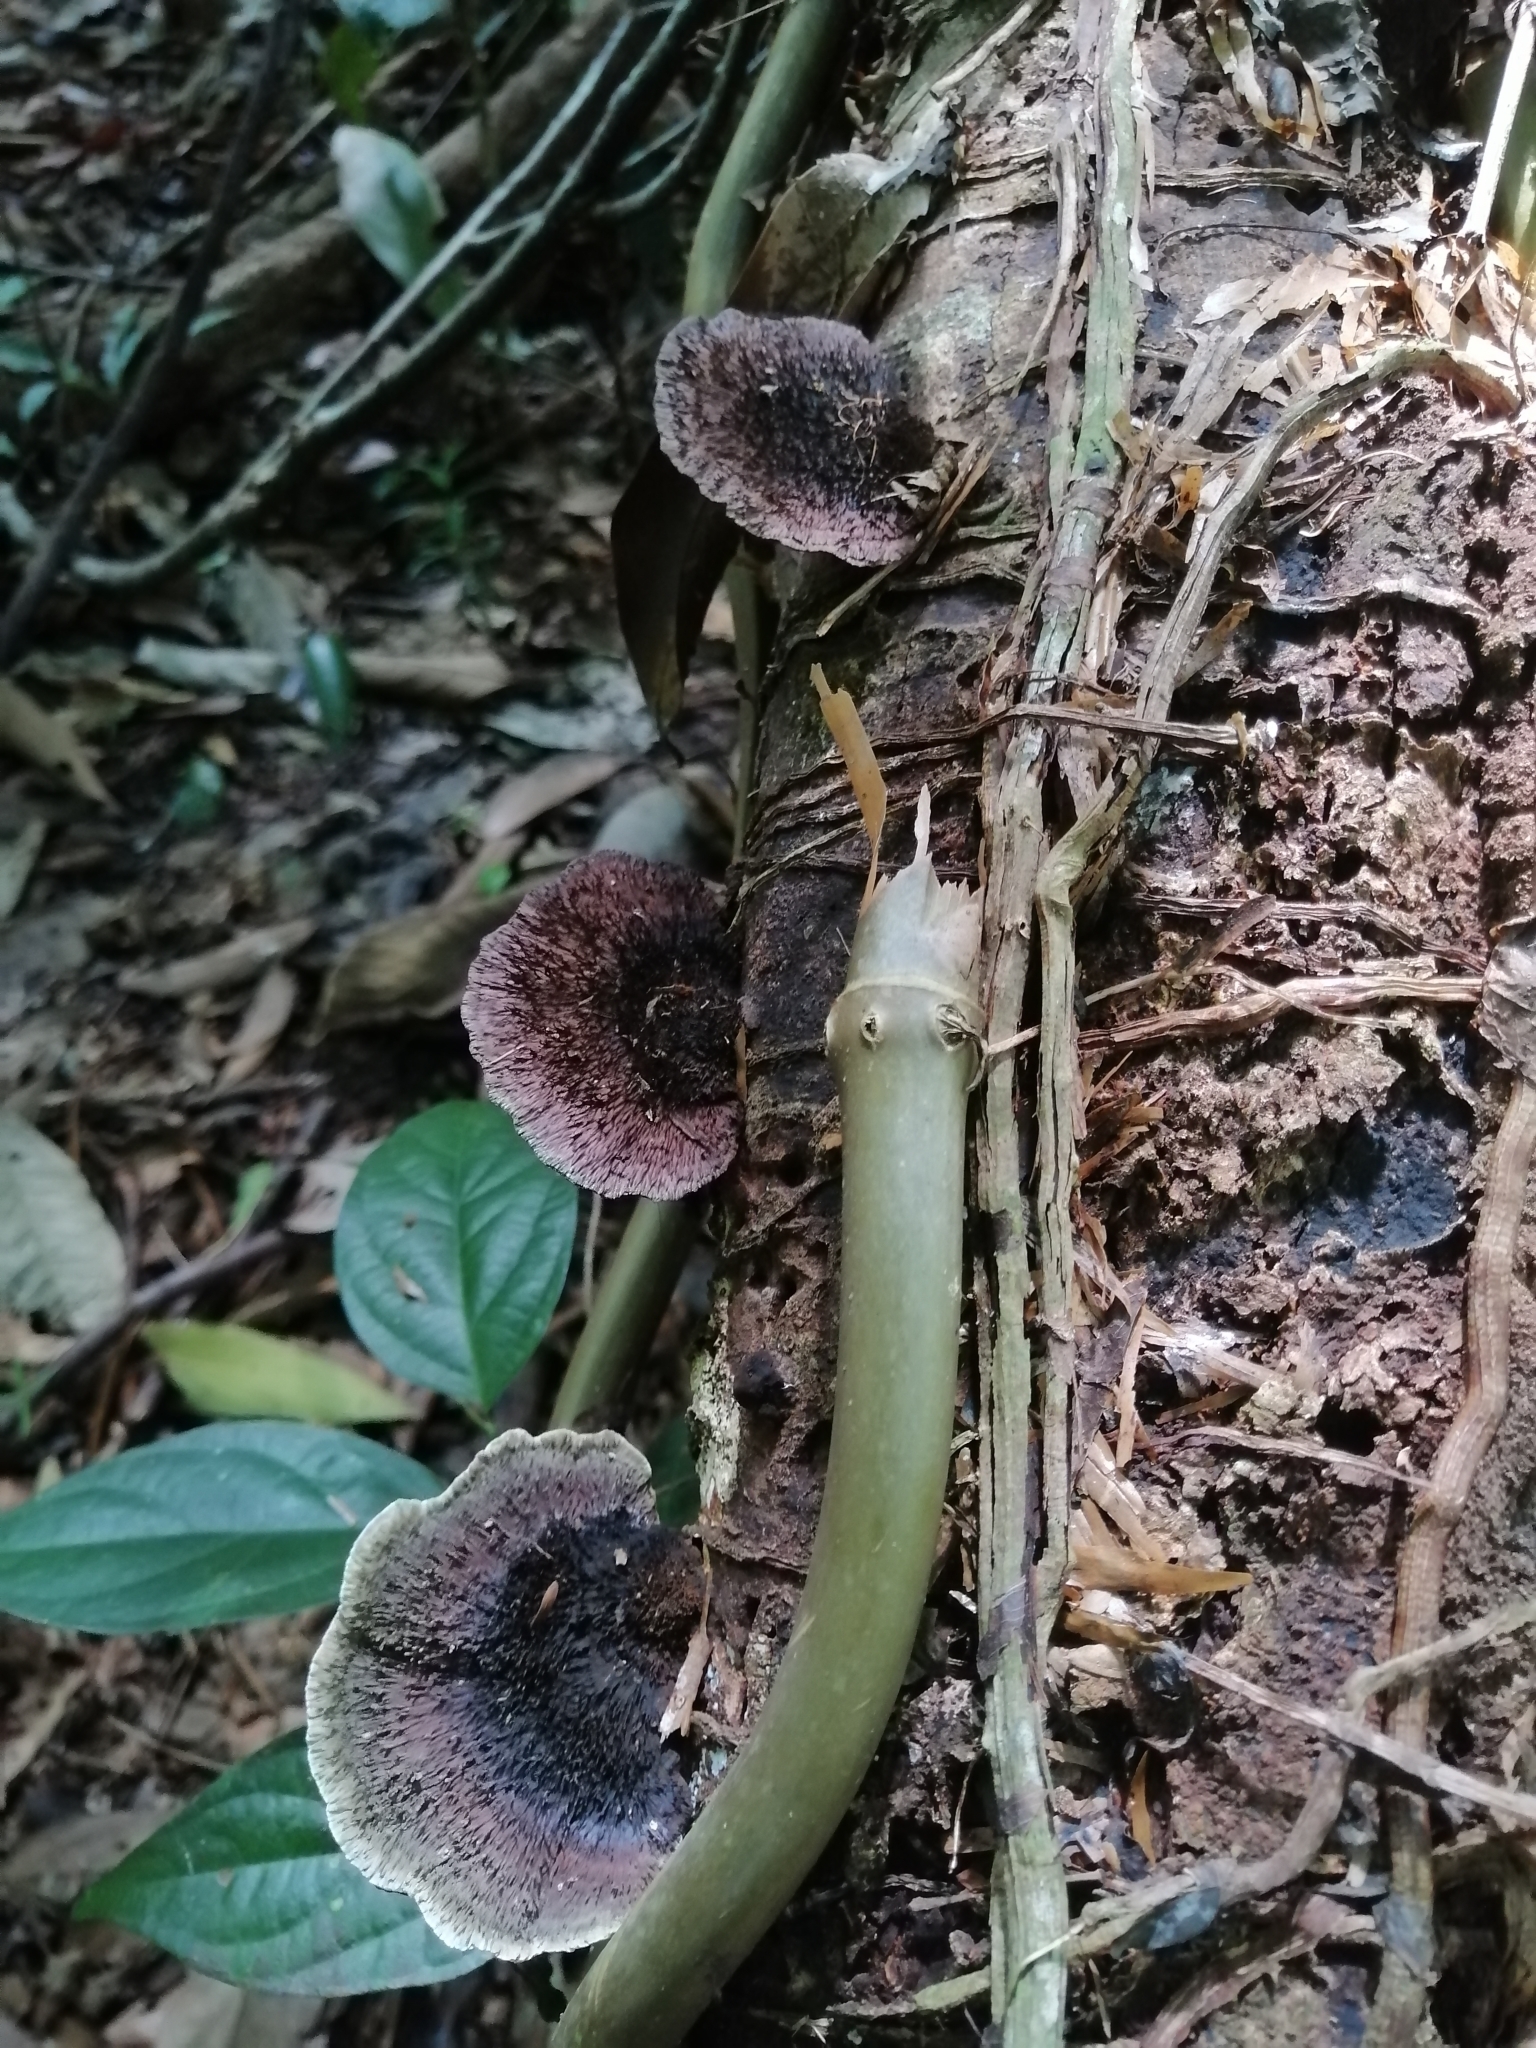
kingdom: Fungi
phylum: Basidiomycota
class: Agaricomycetes
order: Polyporales
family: Cerrenaceae
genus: Cerrena
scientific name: Cerrena hydnoides
